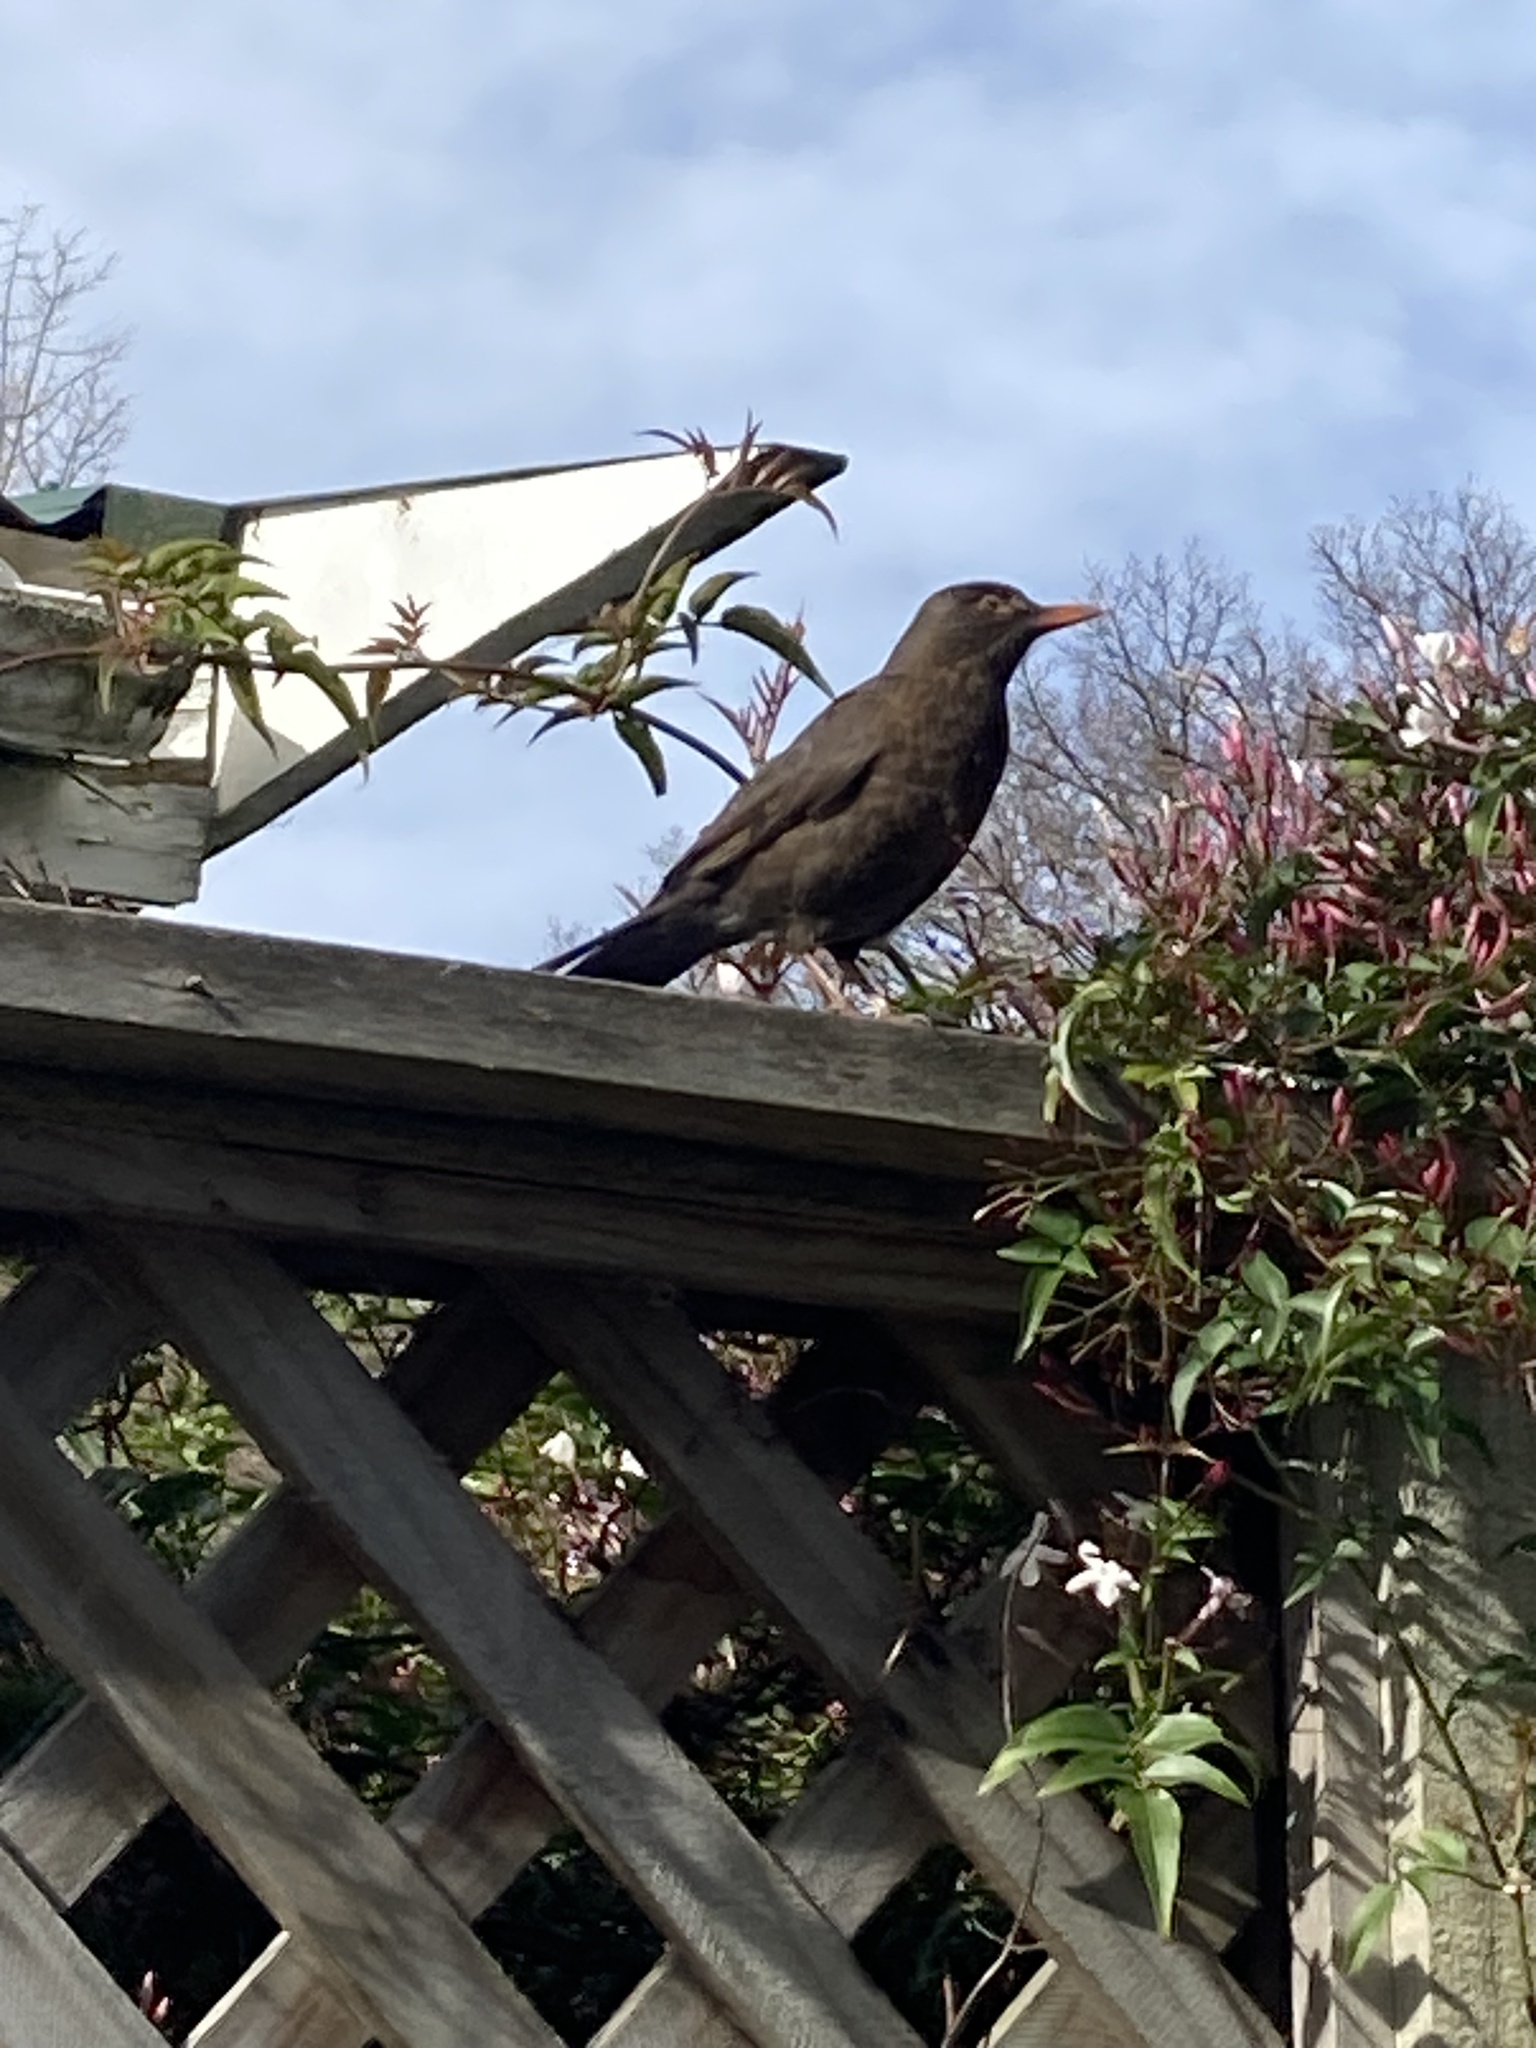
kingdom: Animalia
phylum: Chordata
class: Aves
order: Passeriformes
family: Turdidae
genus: Turdus
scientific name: Turdus merula
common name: Common blackbird
